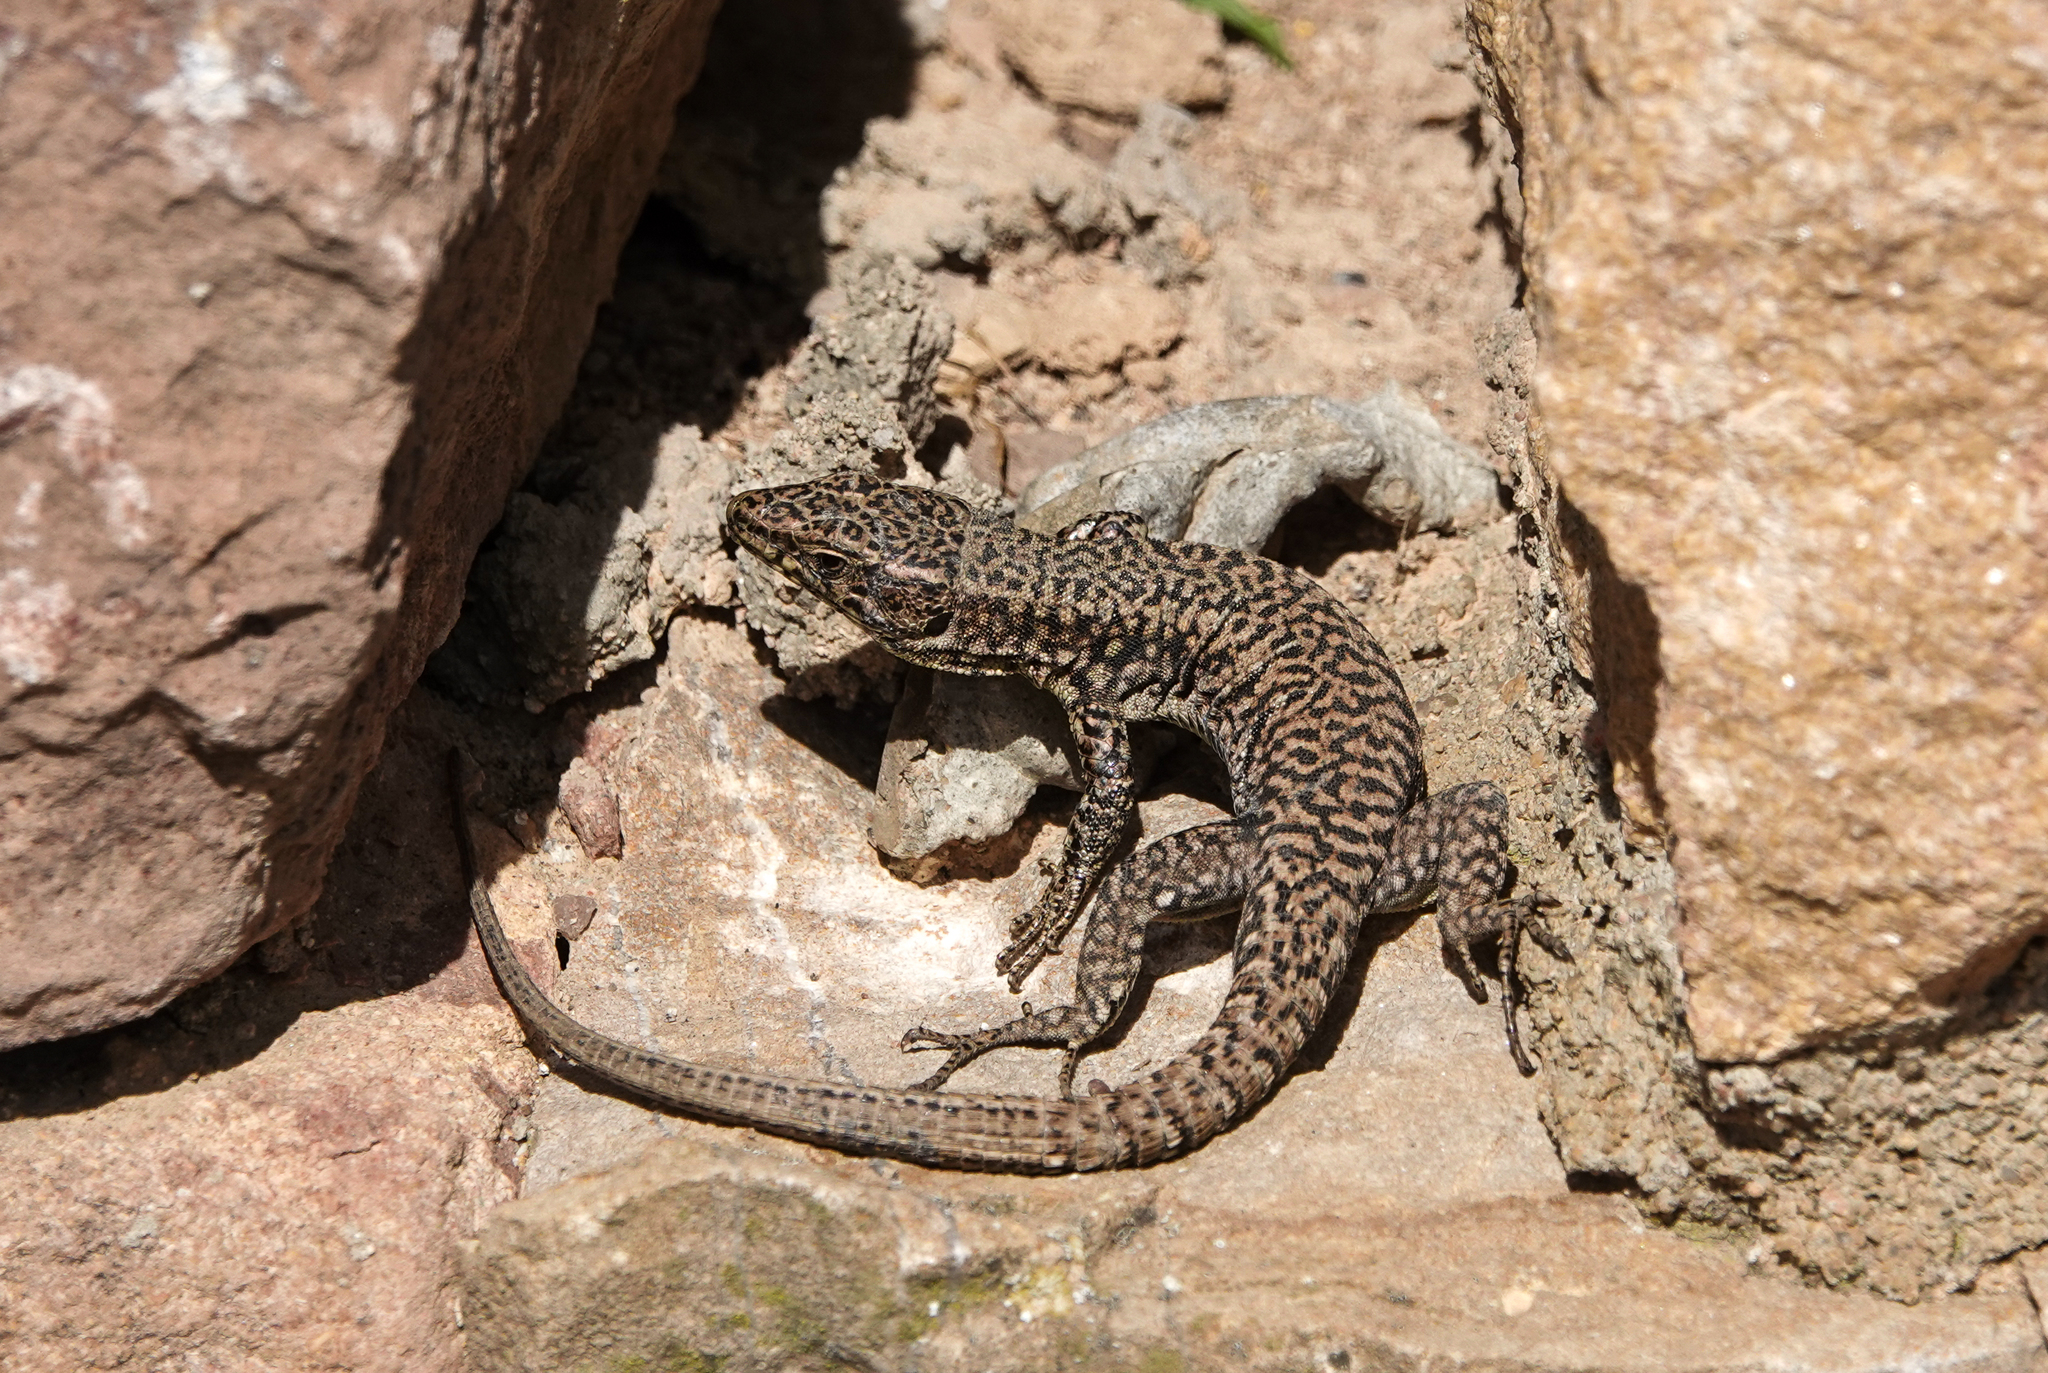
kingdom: Animalia
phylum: Chordata
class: Squamata
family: Lacertidae
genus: Podarcis
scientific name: Podarcis muralis
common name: Common wall lizard
